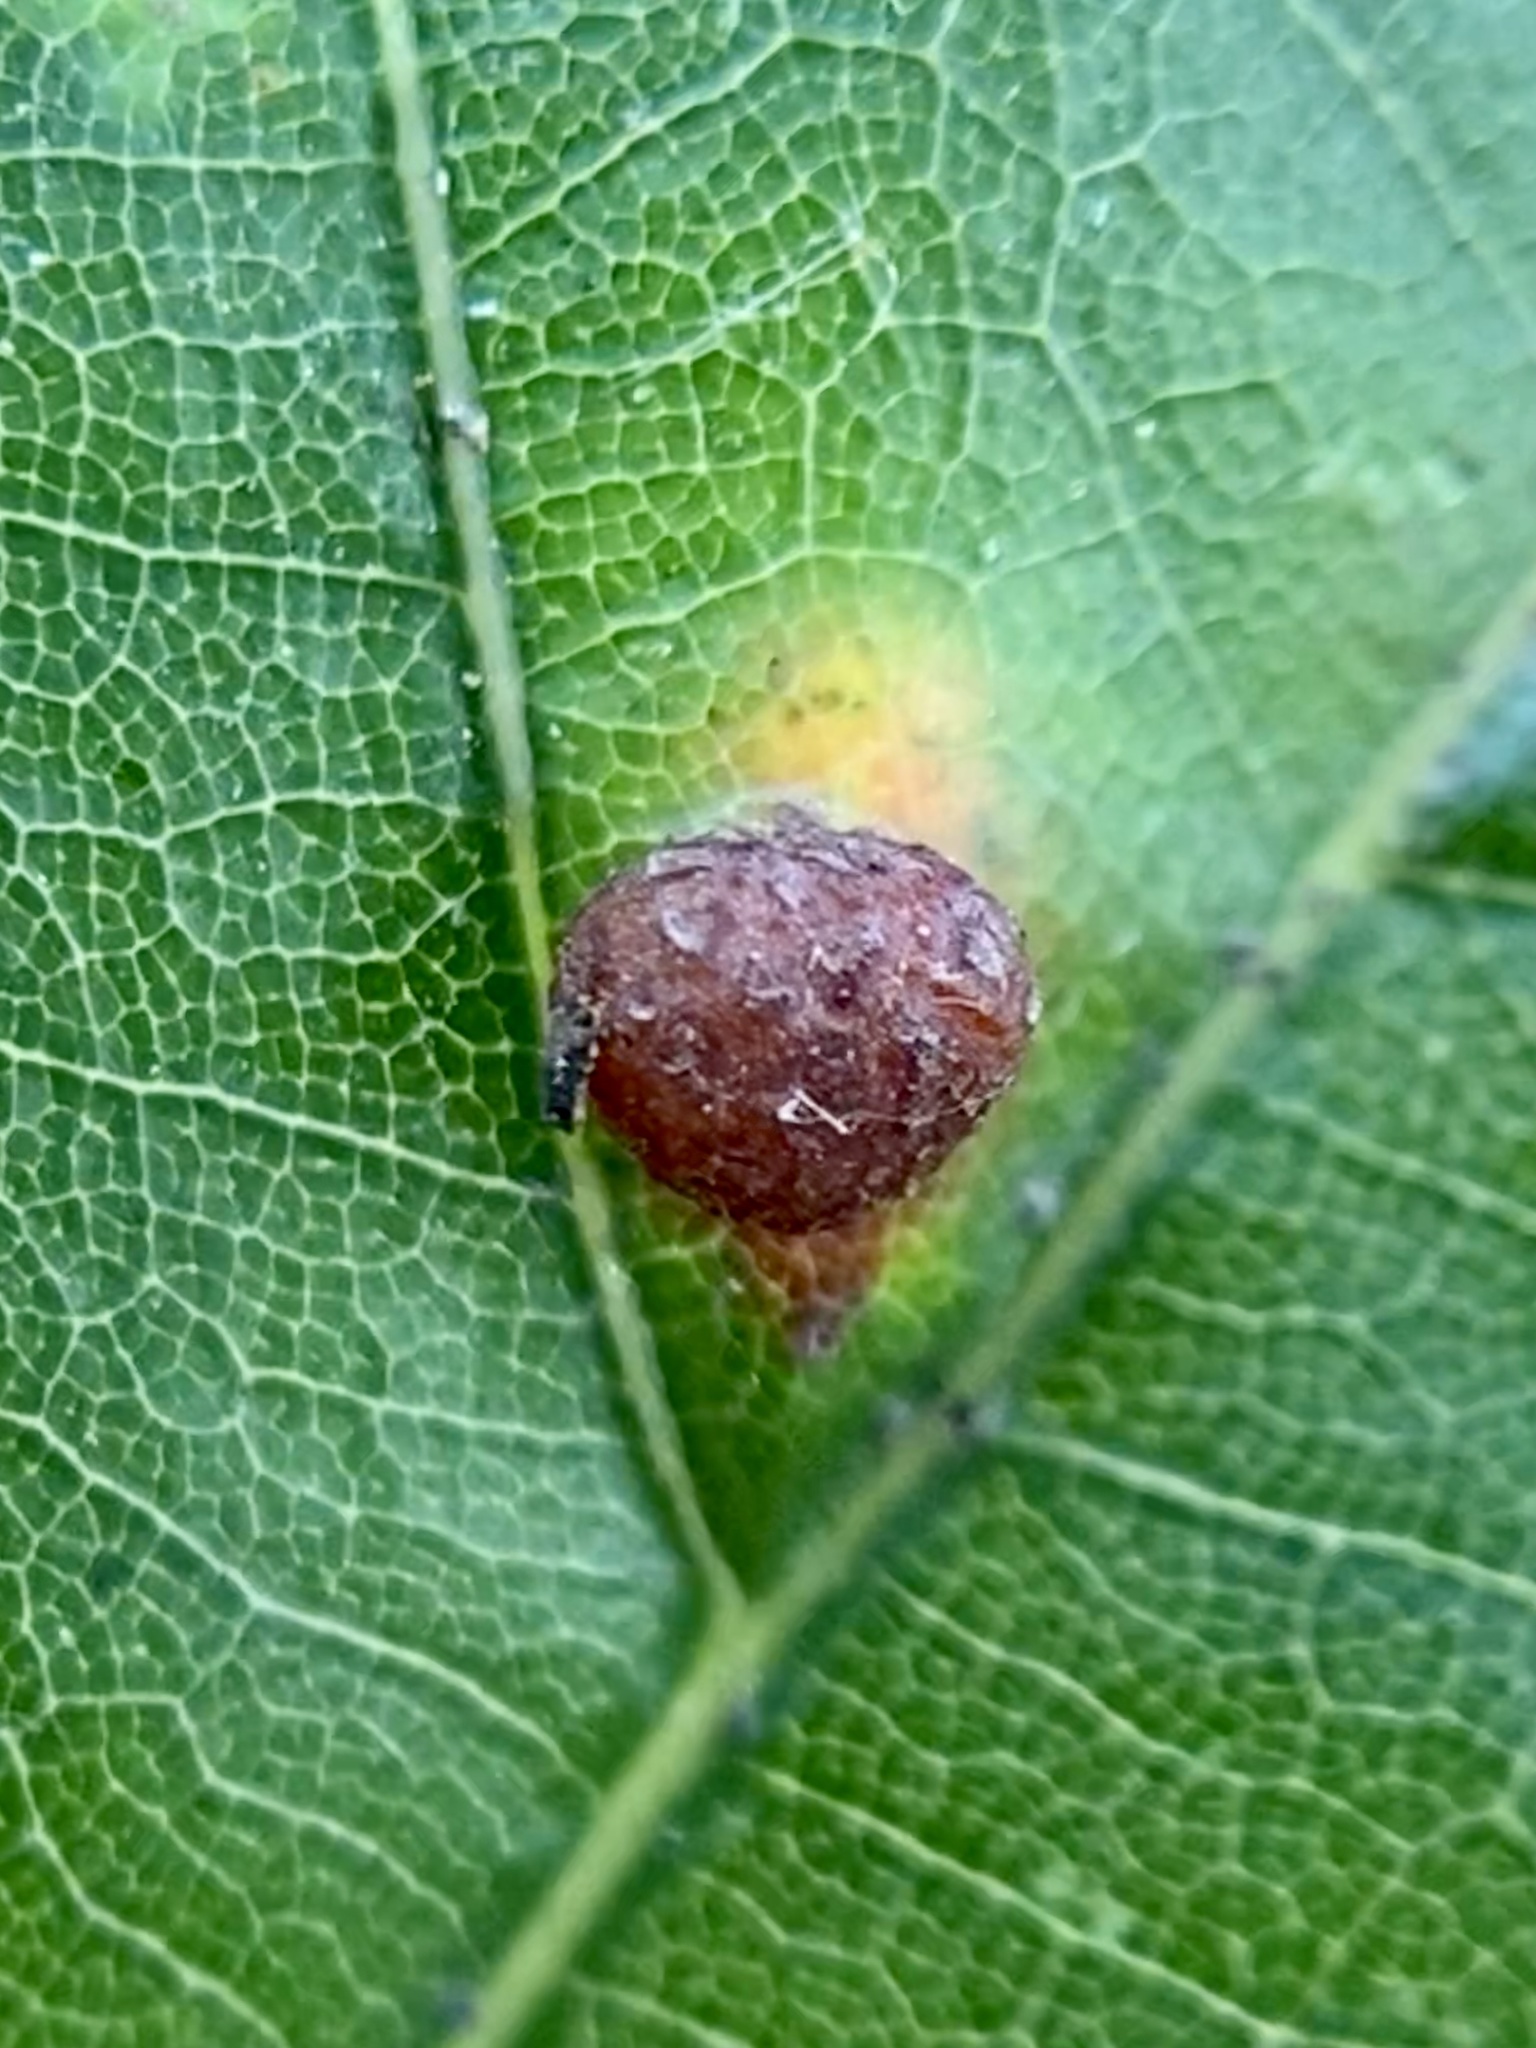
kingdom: Animalia
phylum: Arthropoda
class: Insecta
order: Diptera
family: Cecidomyiidae
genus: Polystepha
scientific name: Polystepha pilulae
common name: Oak leaf gall midge
